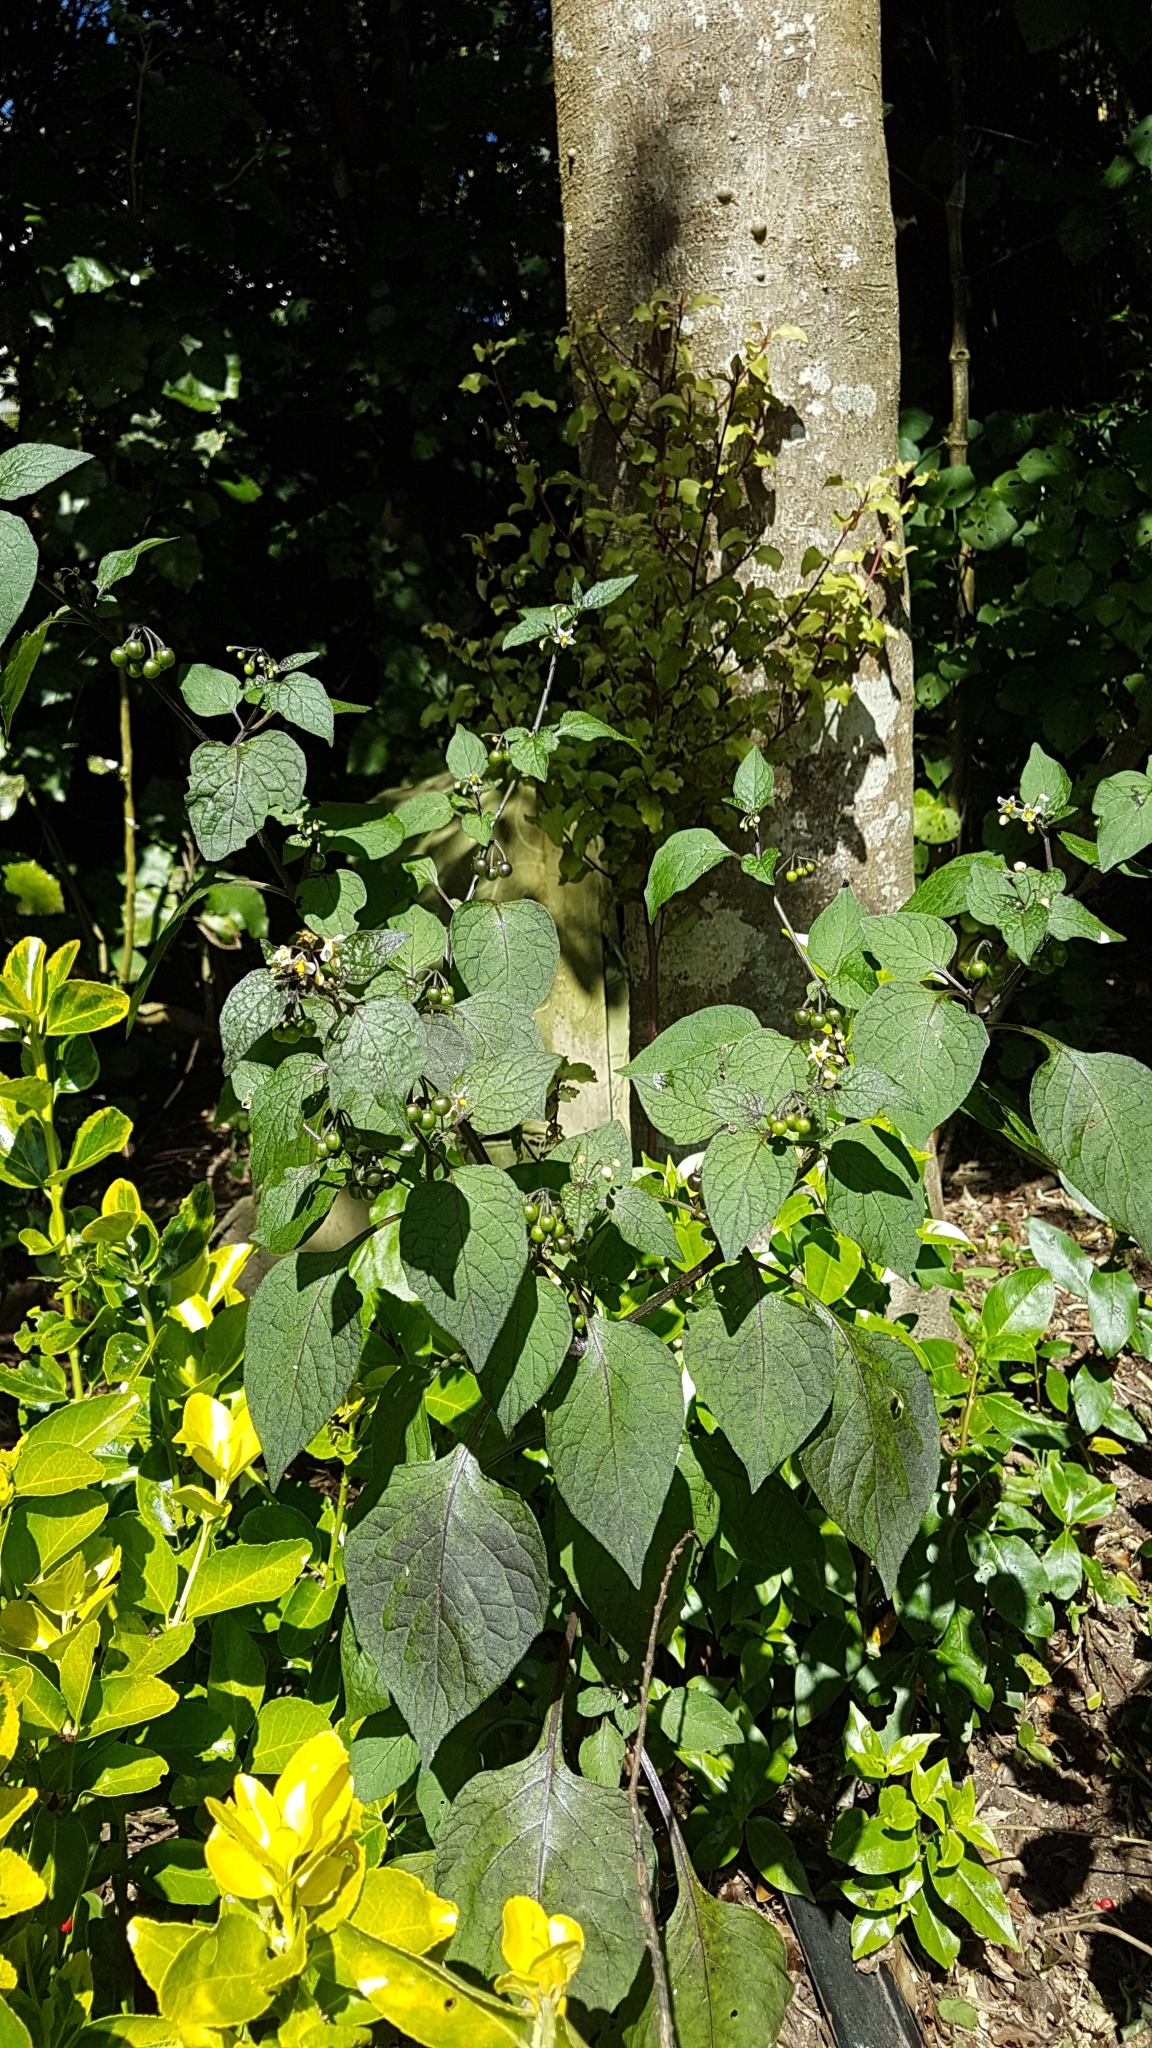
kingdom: Plantae
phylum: Tracheophyta
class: Magnoliopsida
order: Solanales
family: Solanaceae
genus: Solanum
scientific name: Solanum nigrum
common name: Black nightshade
